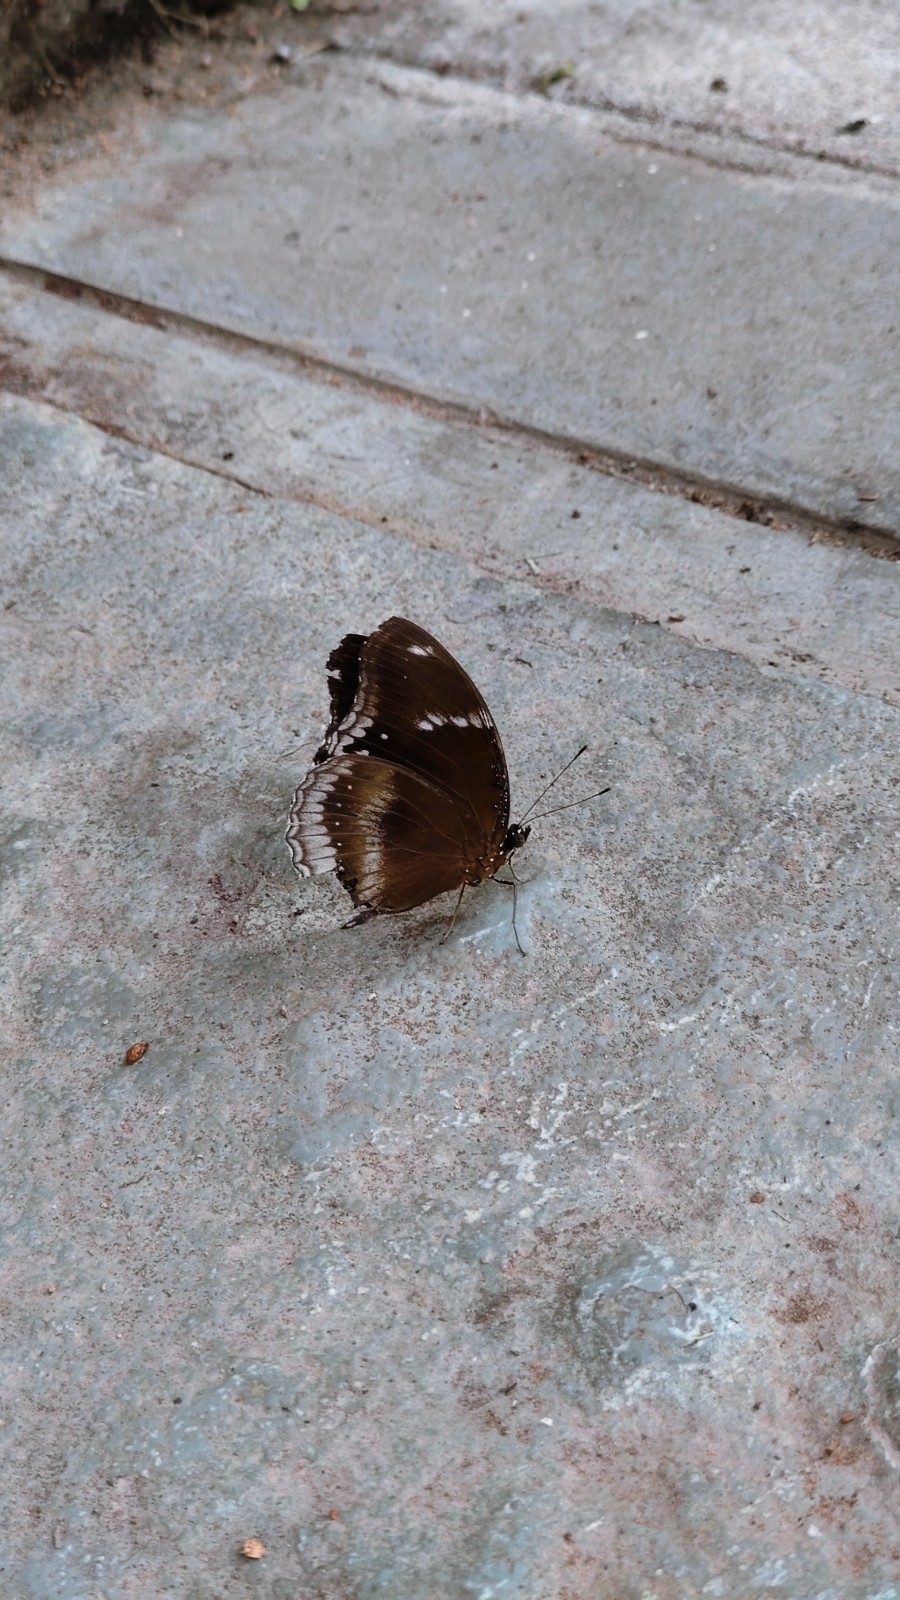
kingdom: Animalia
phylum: Arthropoda
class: Insecta
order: Lepidoptera
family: Nymphalidae
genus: Hypolimnas
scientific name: Hypolimnas bolina
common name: Great eggfly
